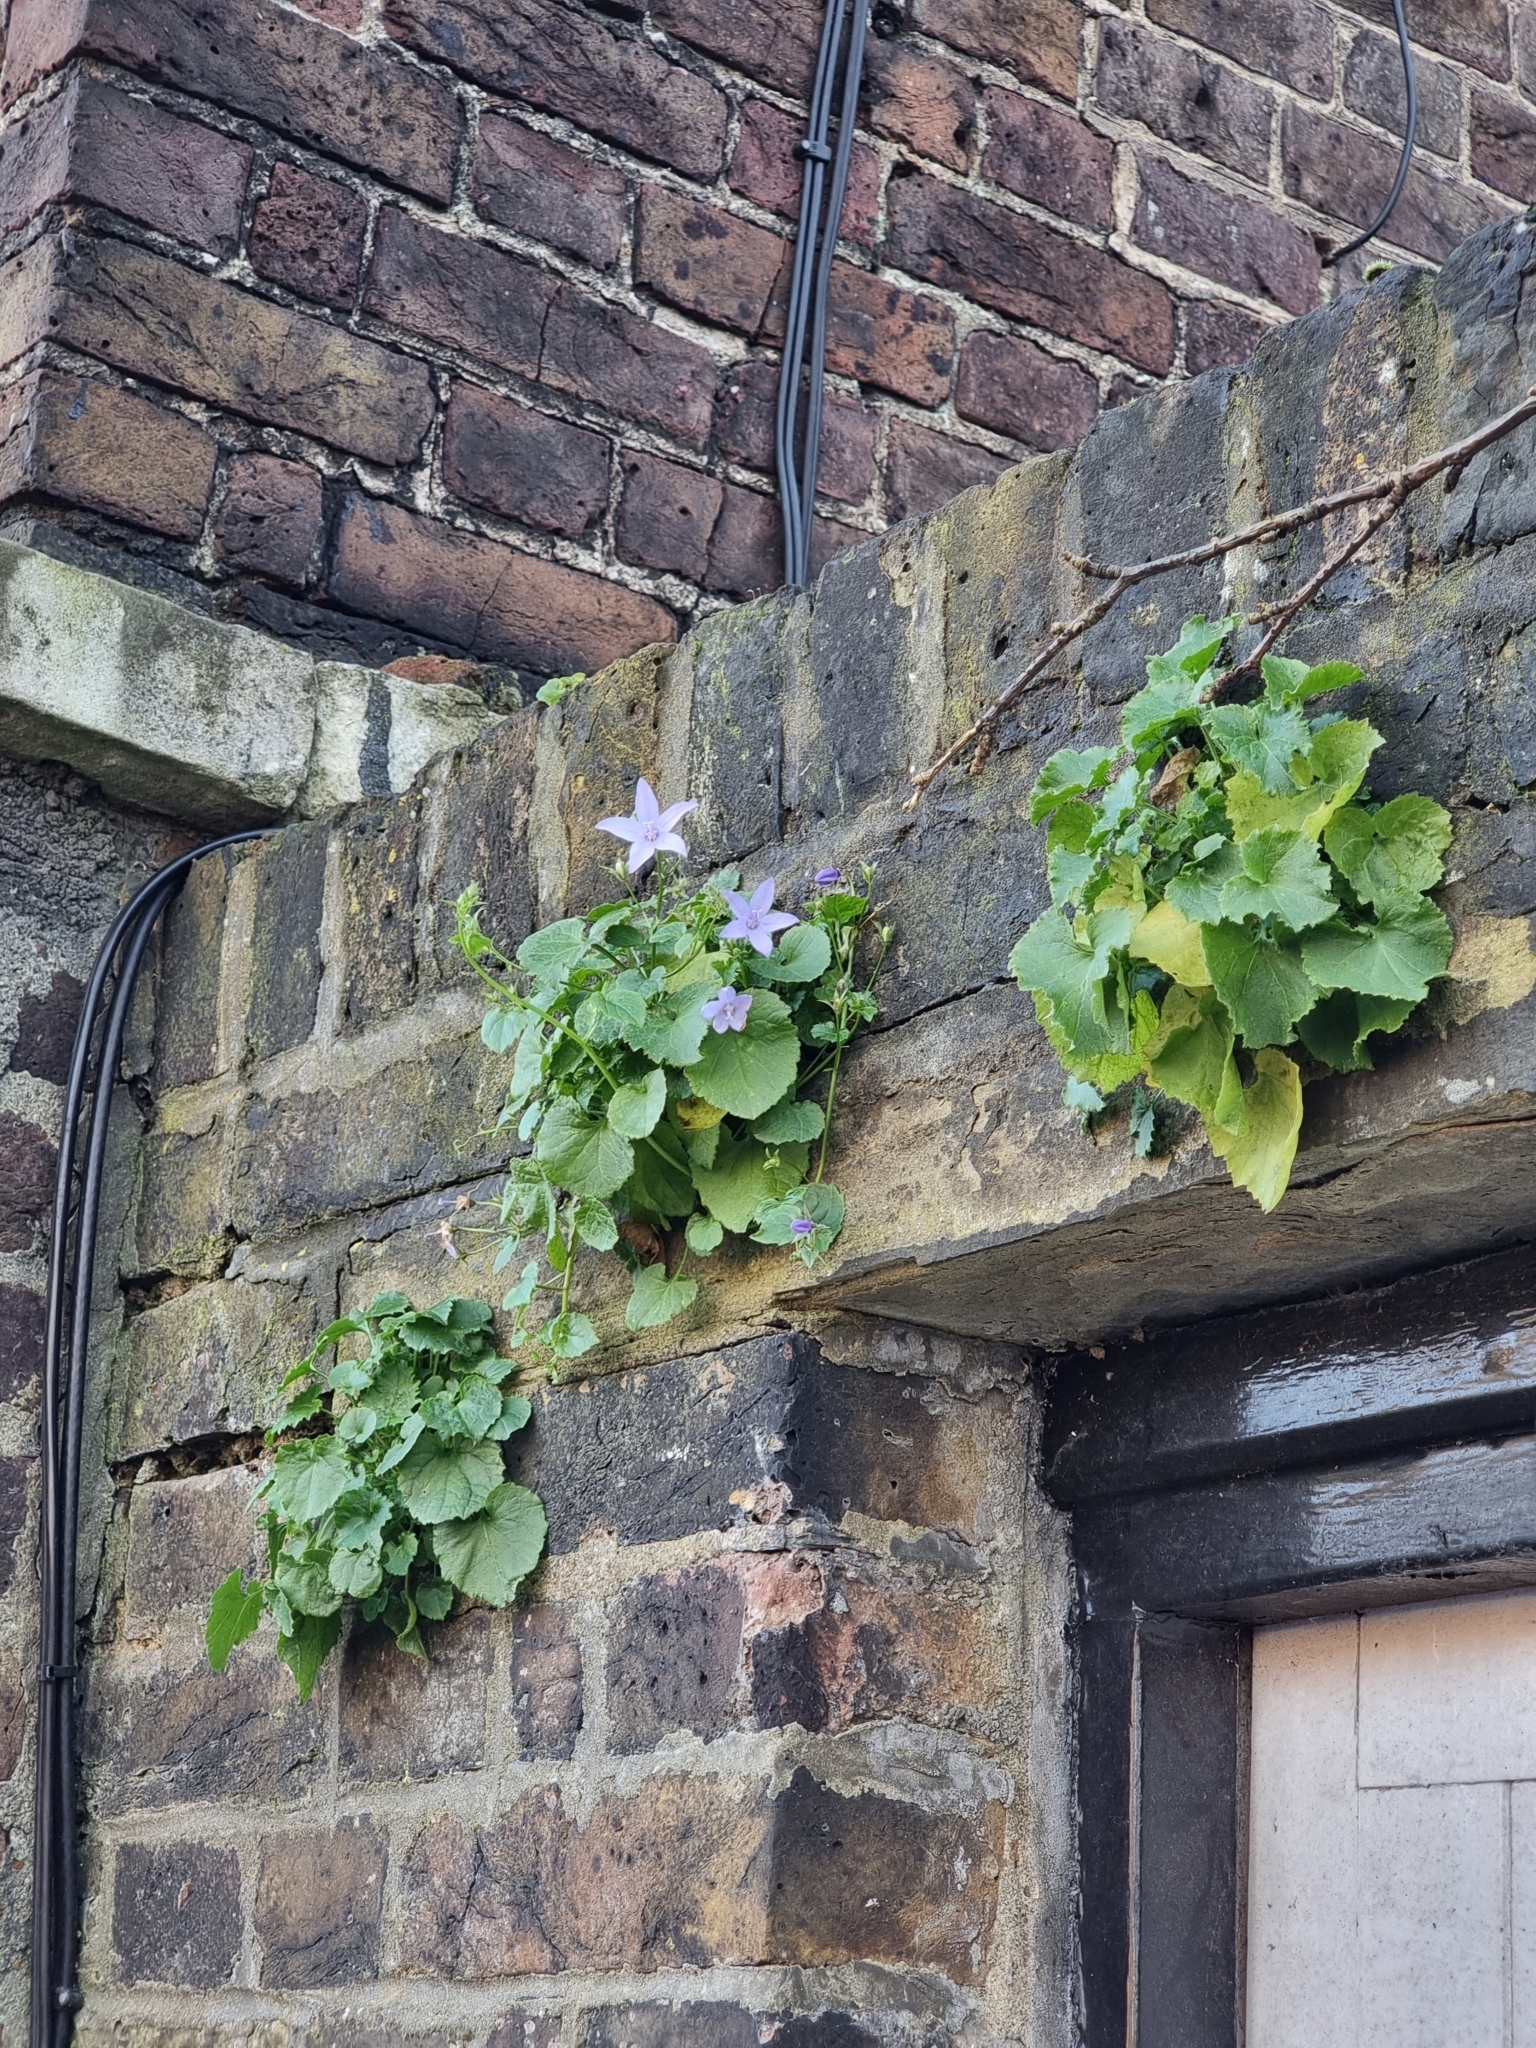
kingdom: Plantae
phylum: Tracheophyta
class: Magnoliopsida
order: Asterales
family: Campanulaceae
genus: Campanula
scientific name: Campanula poscharskyana
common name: Trailing bellflower
